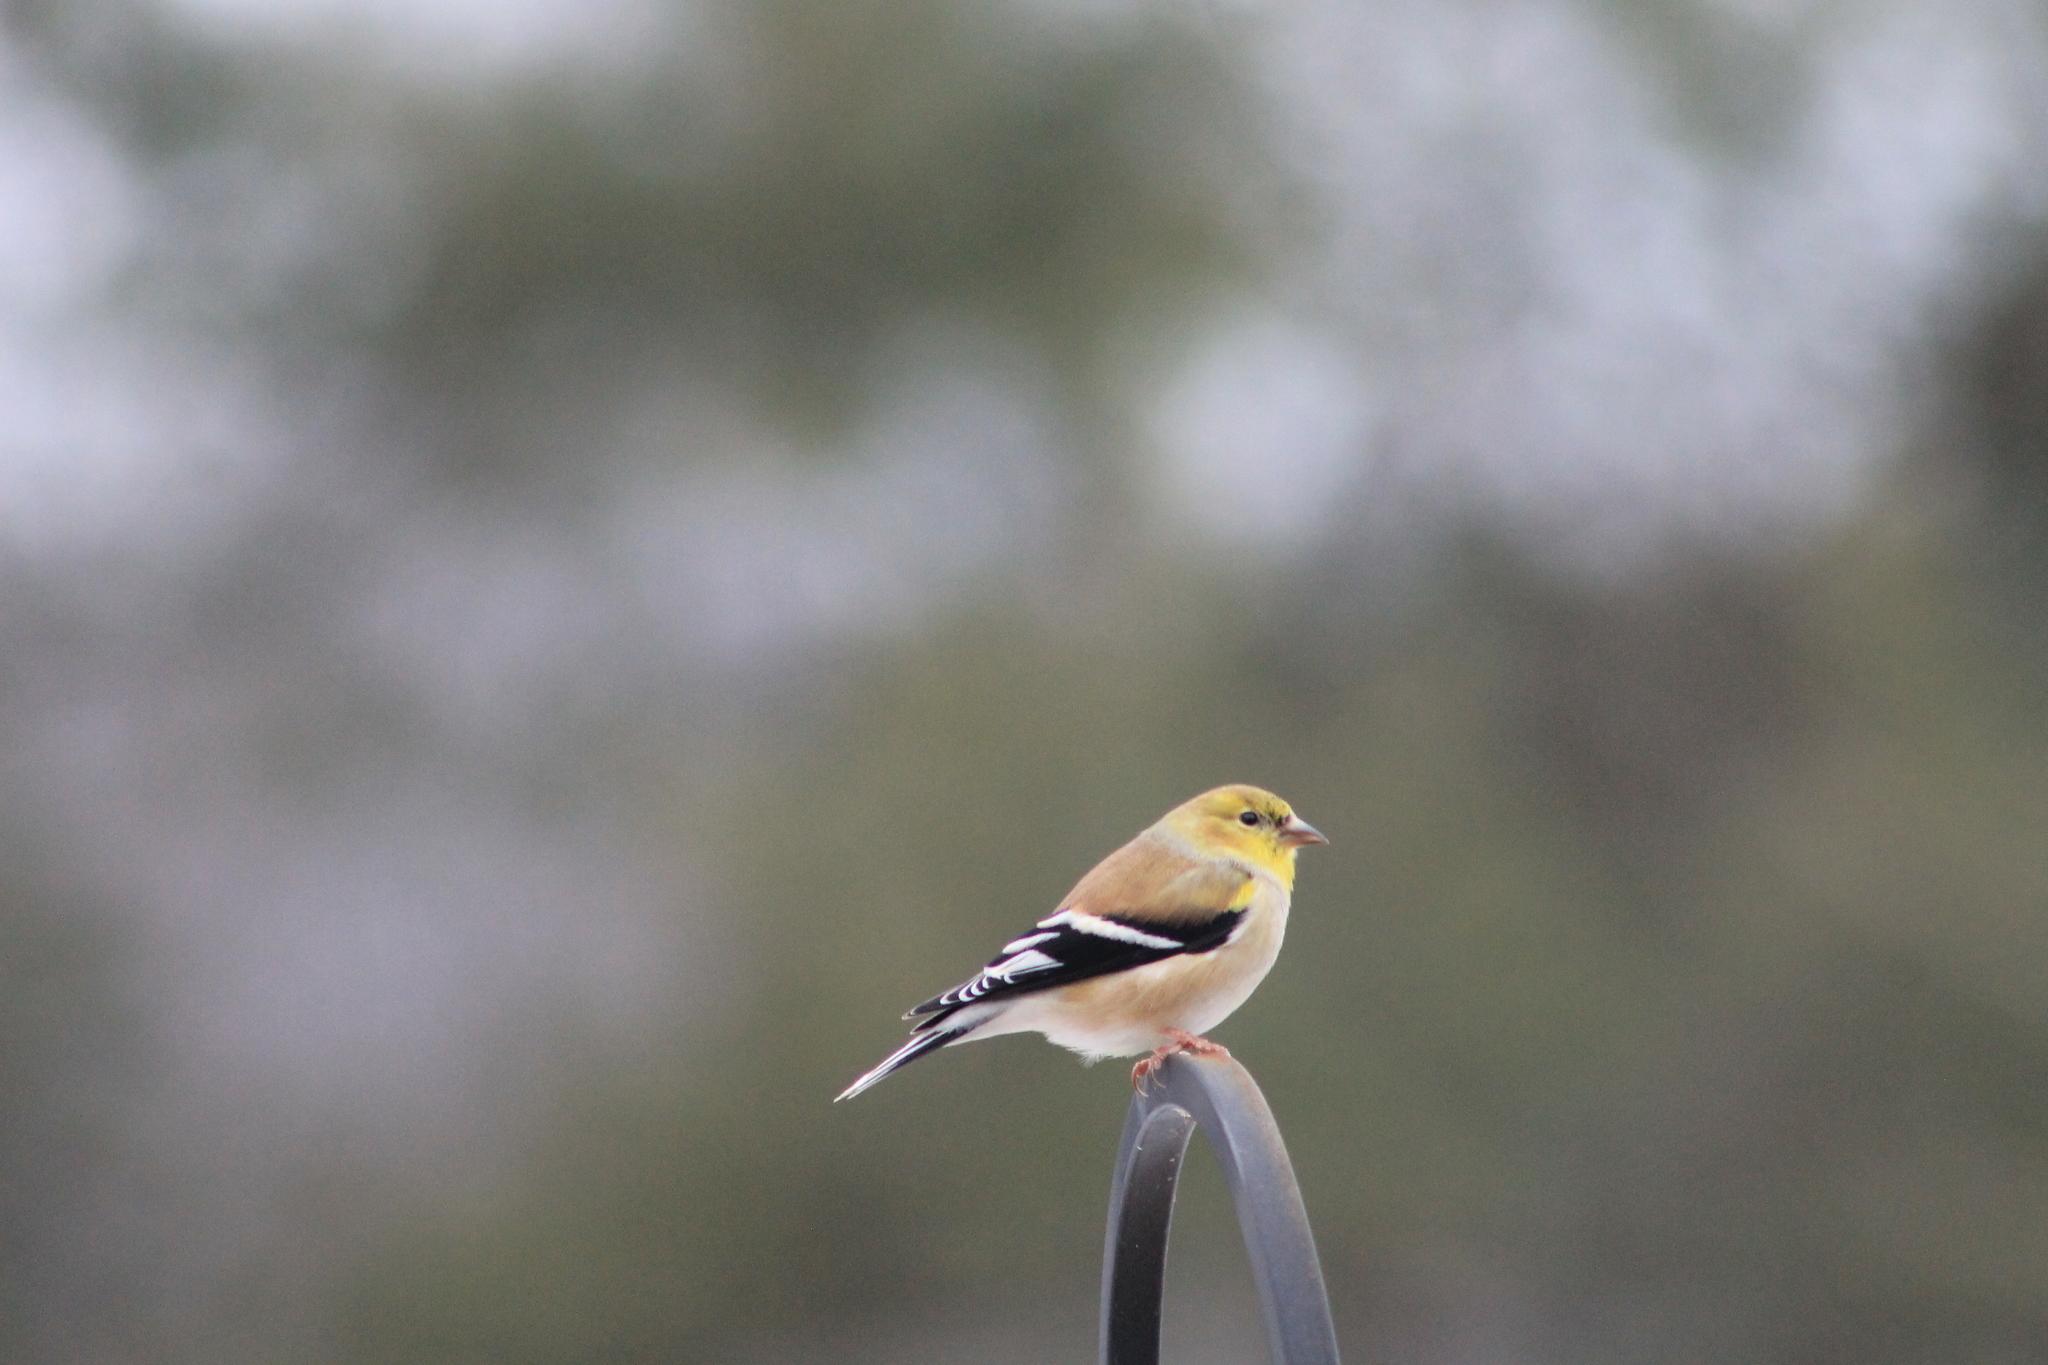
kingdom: Animalia
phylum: Chordata
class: Aves
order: Passeriformes
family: Fringillidae
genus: Spinus
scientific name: Spinus tristis
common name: American goldfinch
